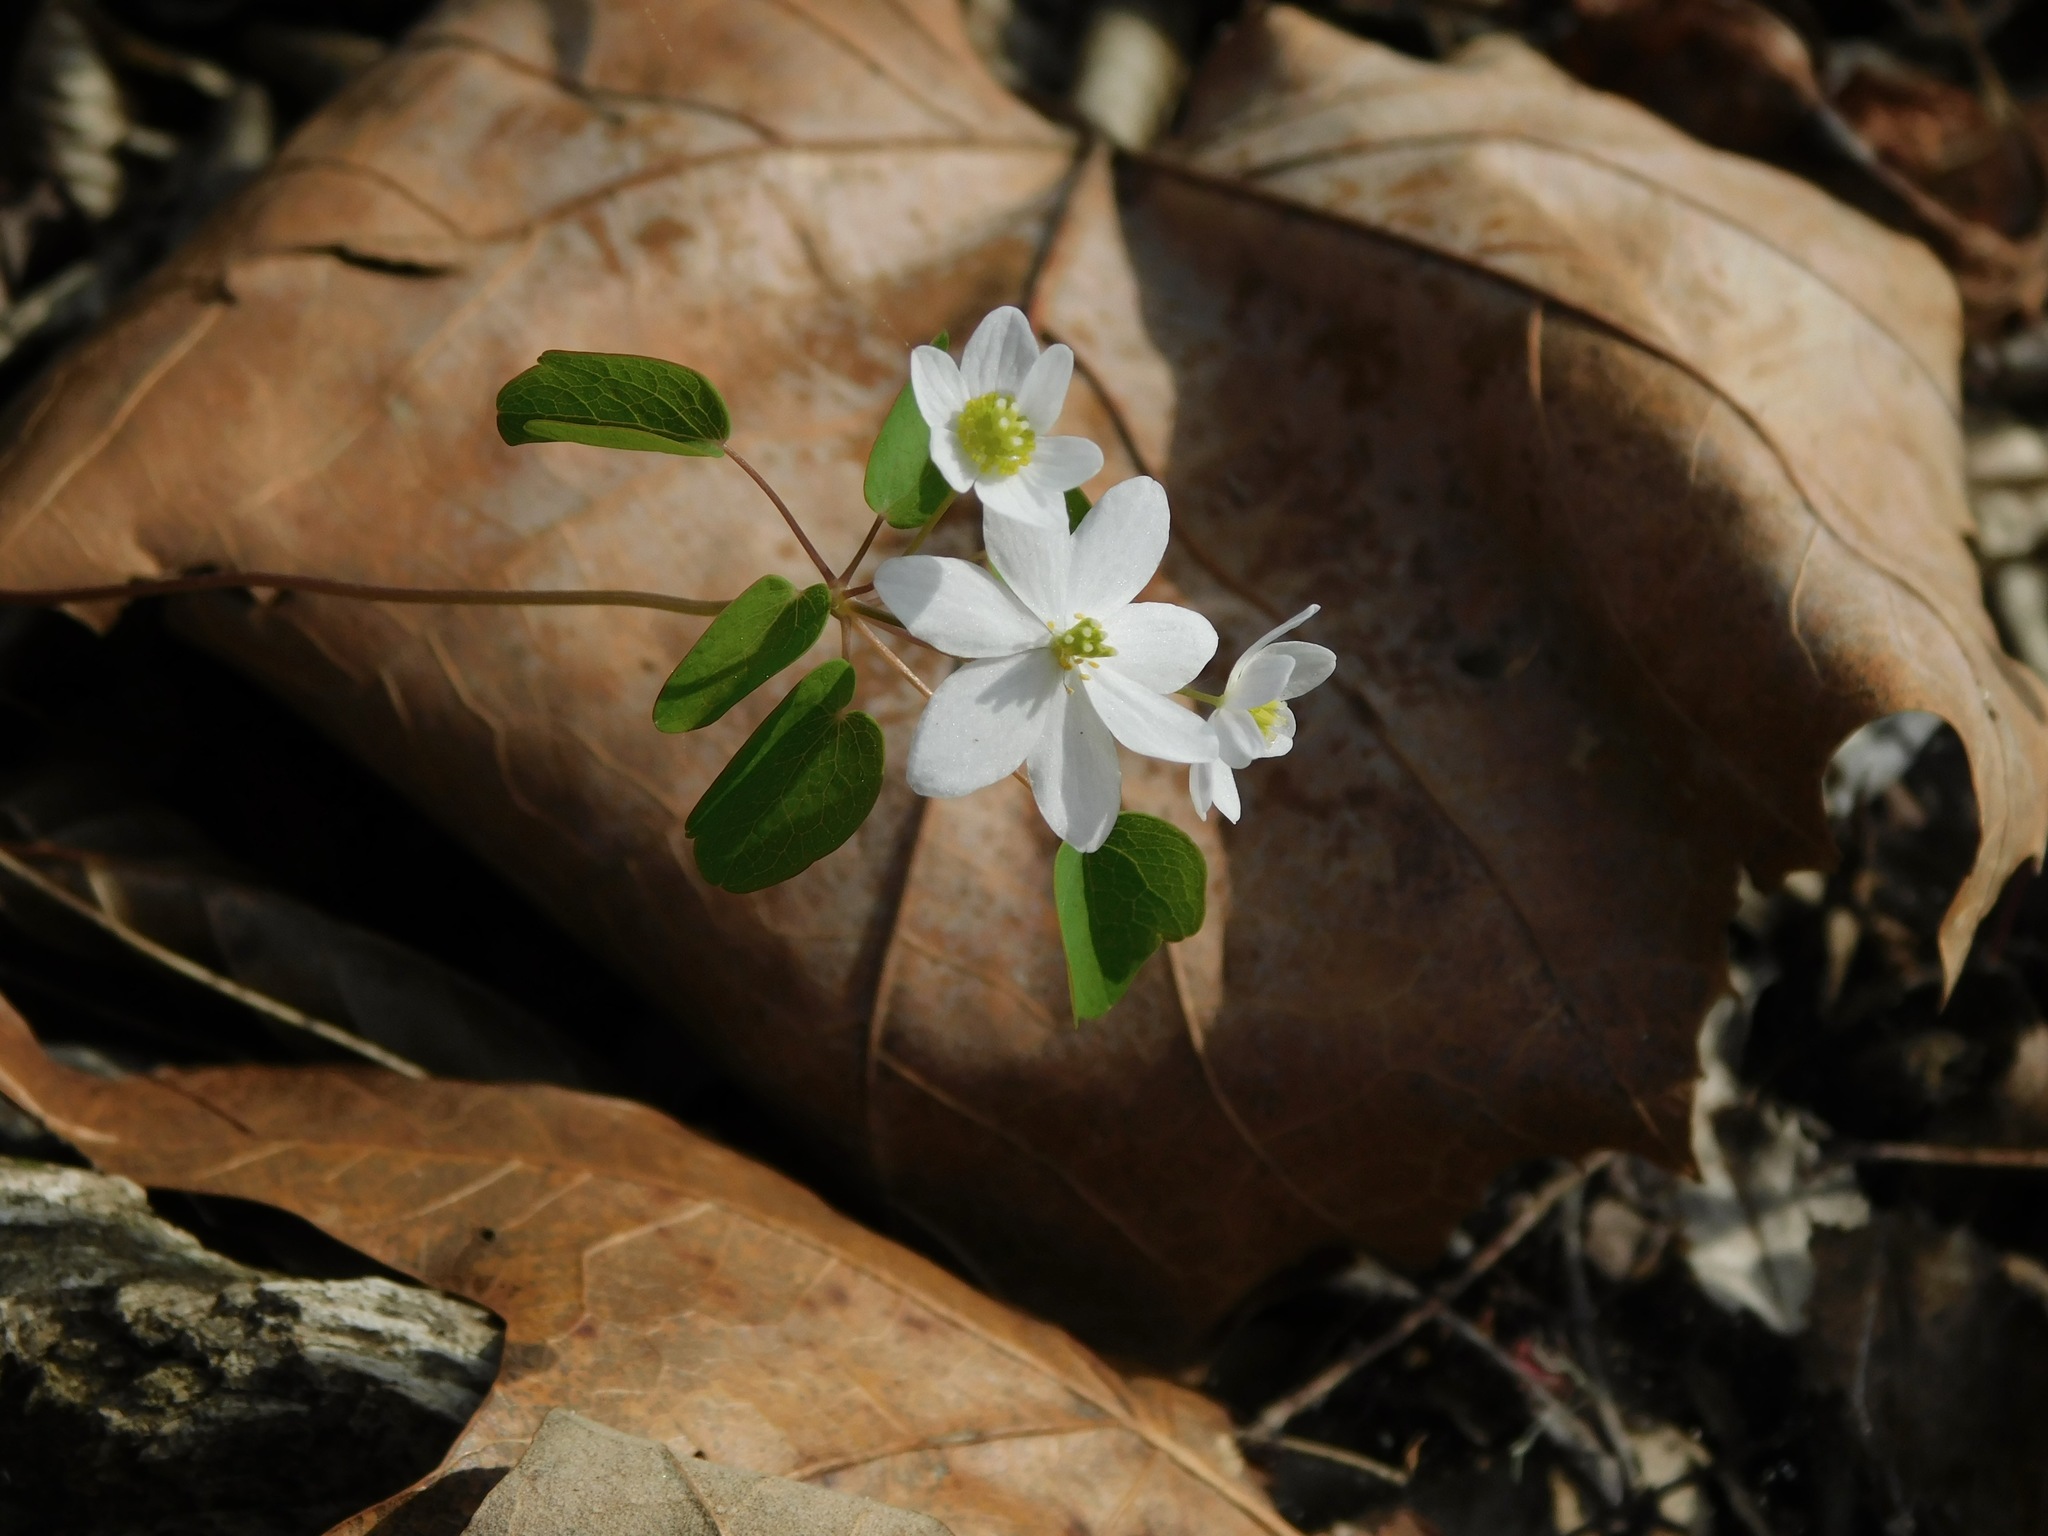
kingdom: Plantae
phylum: Tracheophyta
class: Magnoliopsida
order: Ranunculales
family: Ranunculaceae
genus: Thalictrum
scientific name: Thalictrum thalictroides
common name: Rue-anemone
